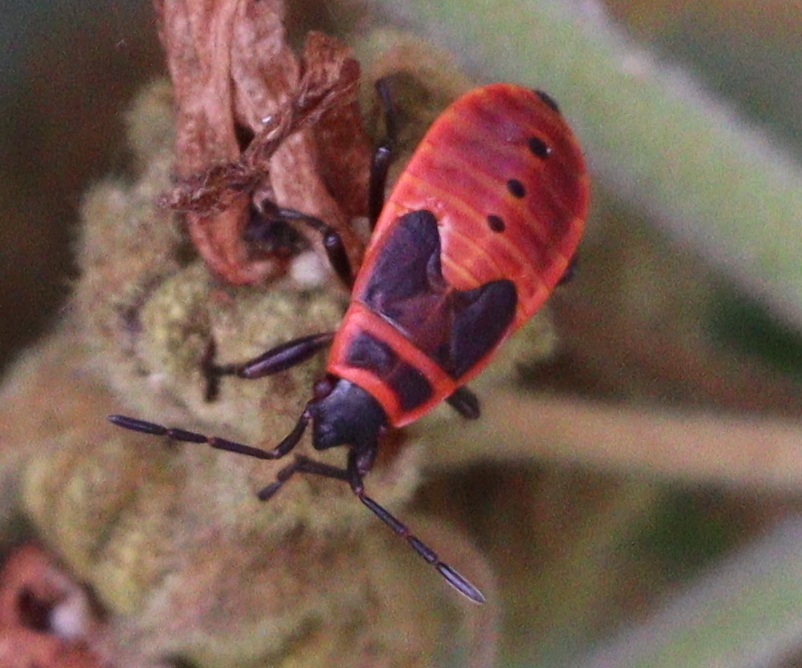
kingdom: Animalia
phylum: Arthropoda
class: Insecta
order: Hemiptera
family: Pyrrhocoridae
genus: Pyrrhocoris
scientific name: Pyrrhocoris apterus
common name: Firebug
